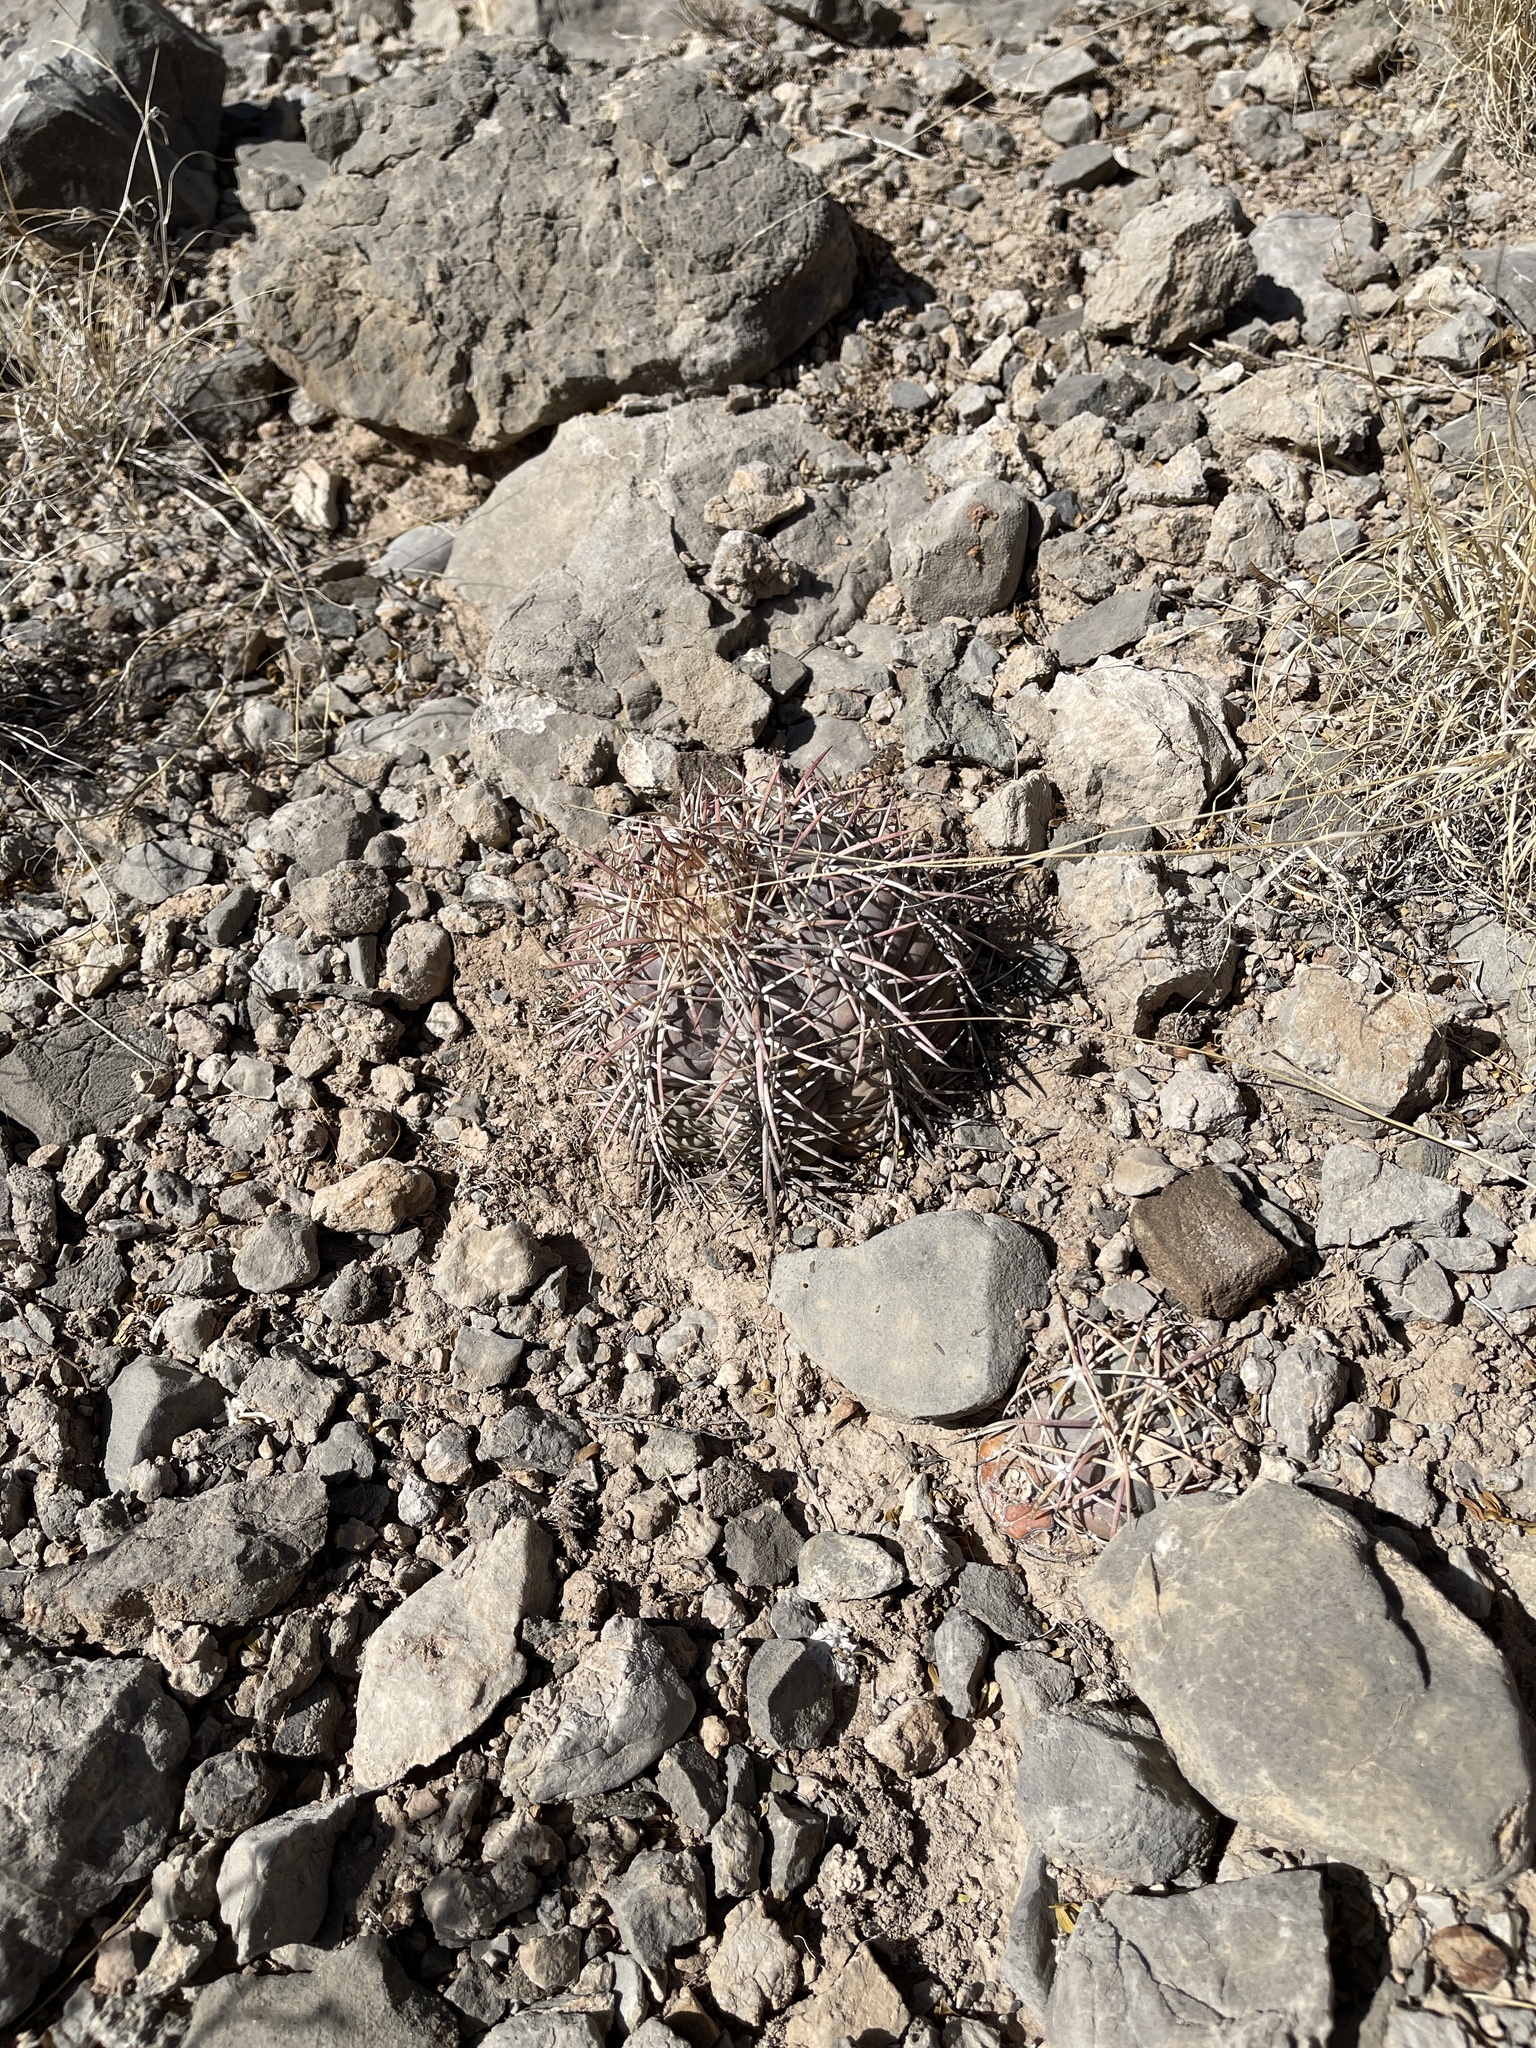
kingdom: Plantae
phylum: Tracheophyta
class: Magnoliopsida
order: Caryophyllales
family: Cactaceae
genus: Echinocactus
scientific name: Echinocactus horizonthalonius
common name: Devilshead
